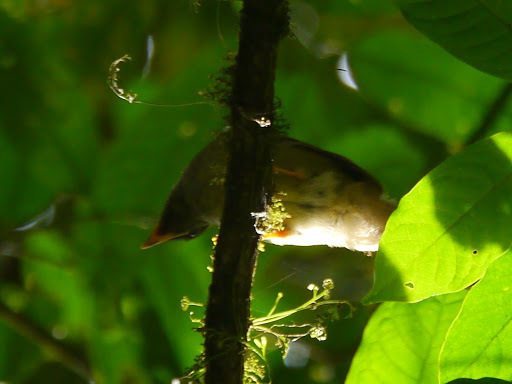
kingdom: Animalia
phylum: Chordata
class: Aves
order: Passeriformes
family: Turdidae
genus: Turdus
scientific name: Turdus pelios
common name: African thrush
